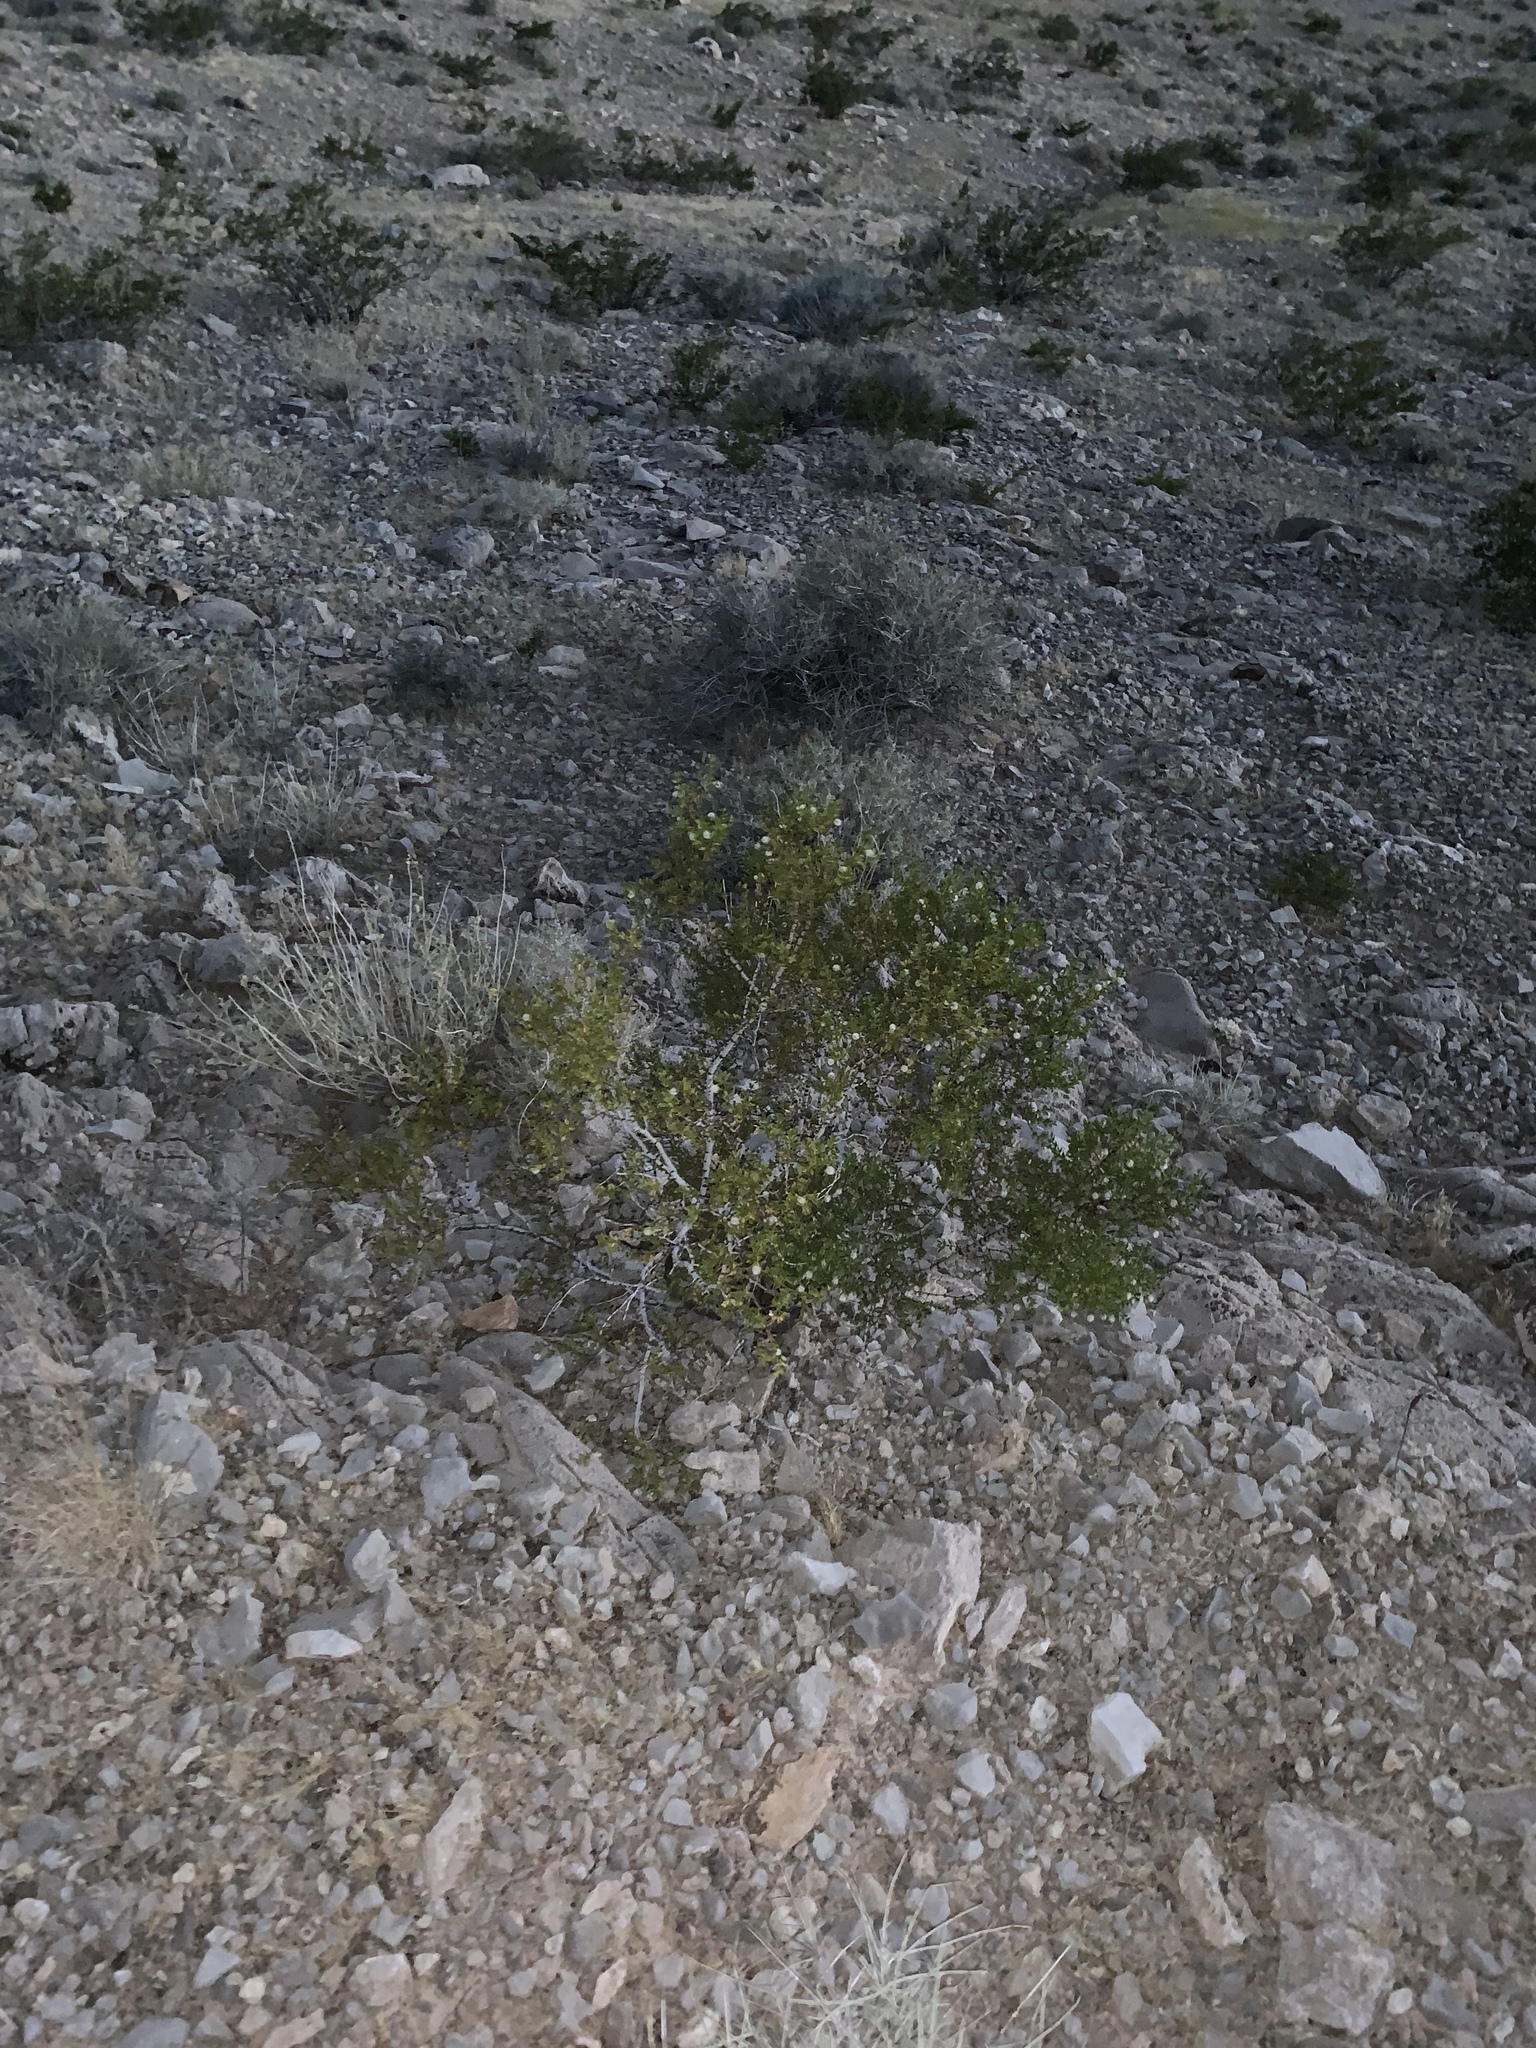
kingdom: Plantae
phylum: Tracheophyta
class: Magnoliopsida
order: Zygophyllales
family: Zygophyllaceae
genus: Larrea
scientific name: Larrea tridentata
